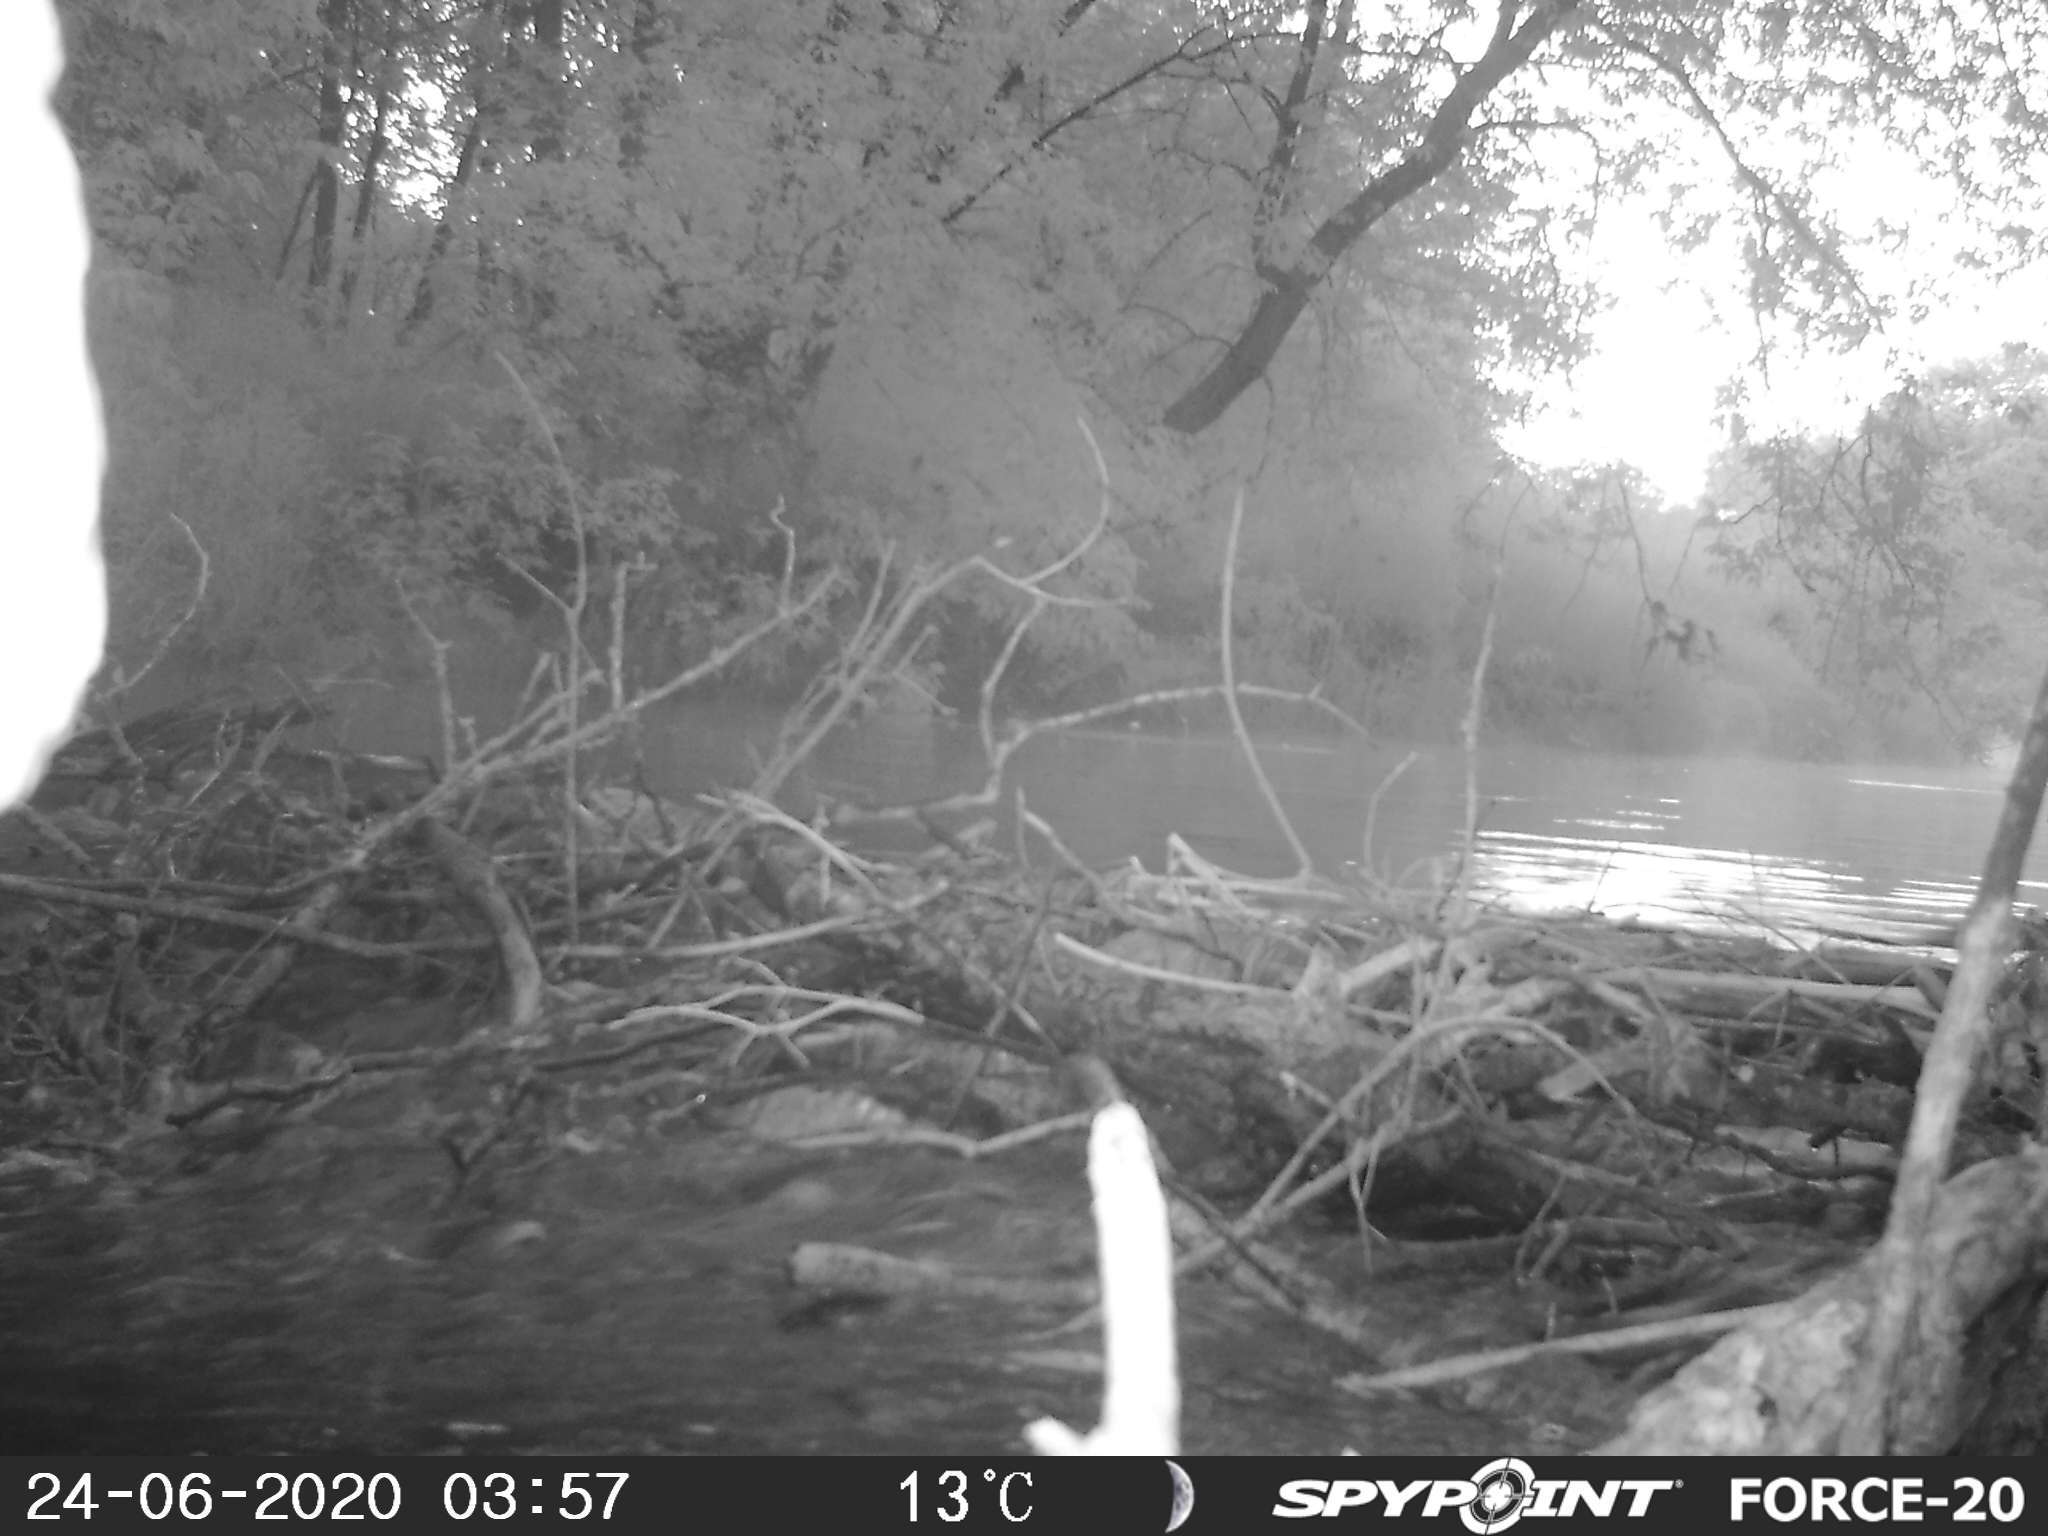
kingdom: Animalia
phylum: Chordata
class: Mammalia
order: Rodentia
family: Castoridae
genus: Castor
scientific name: Castor canadensis
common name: American beaver
